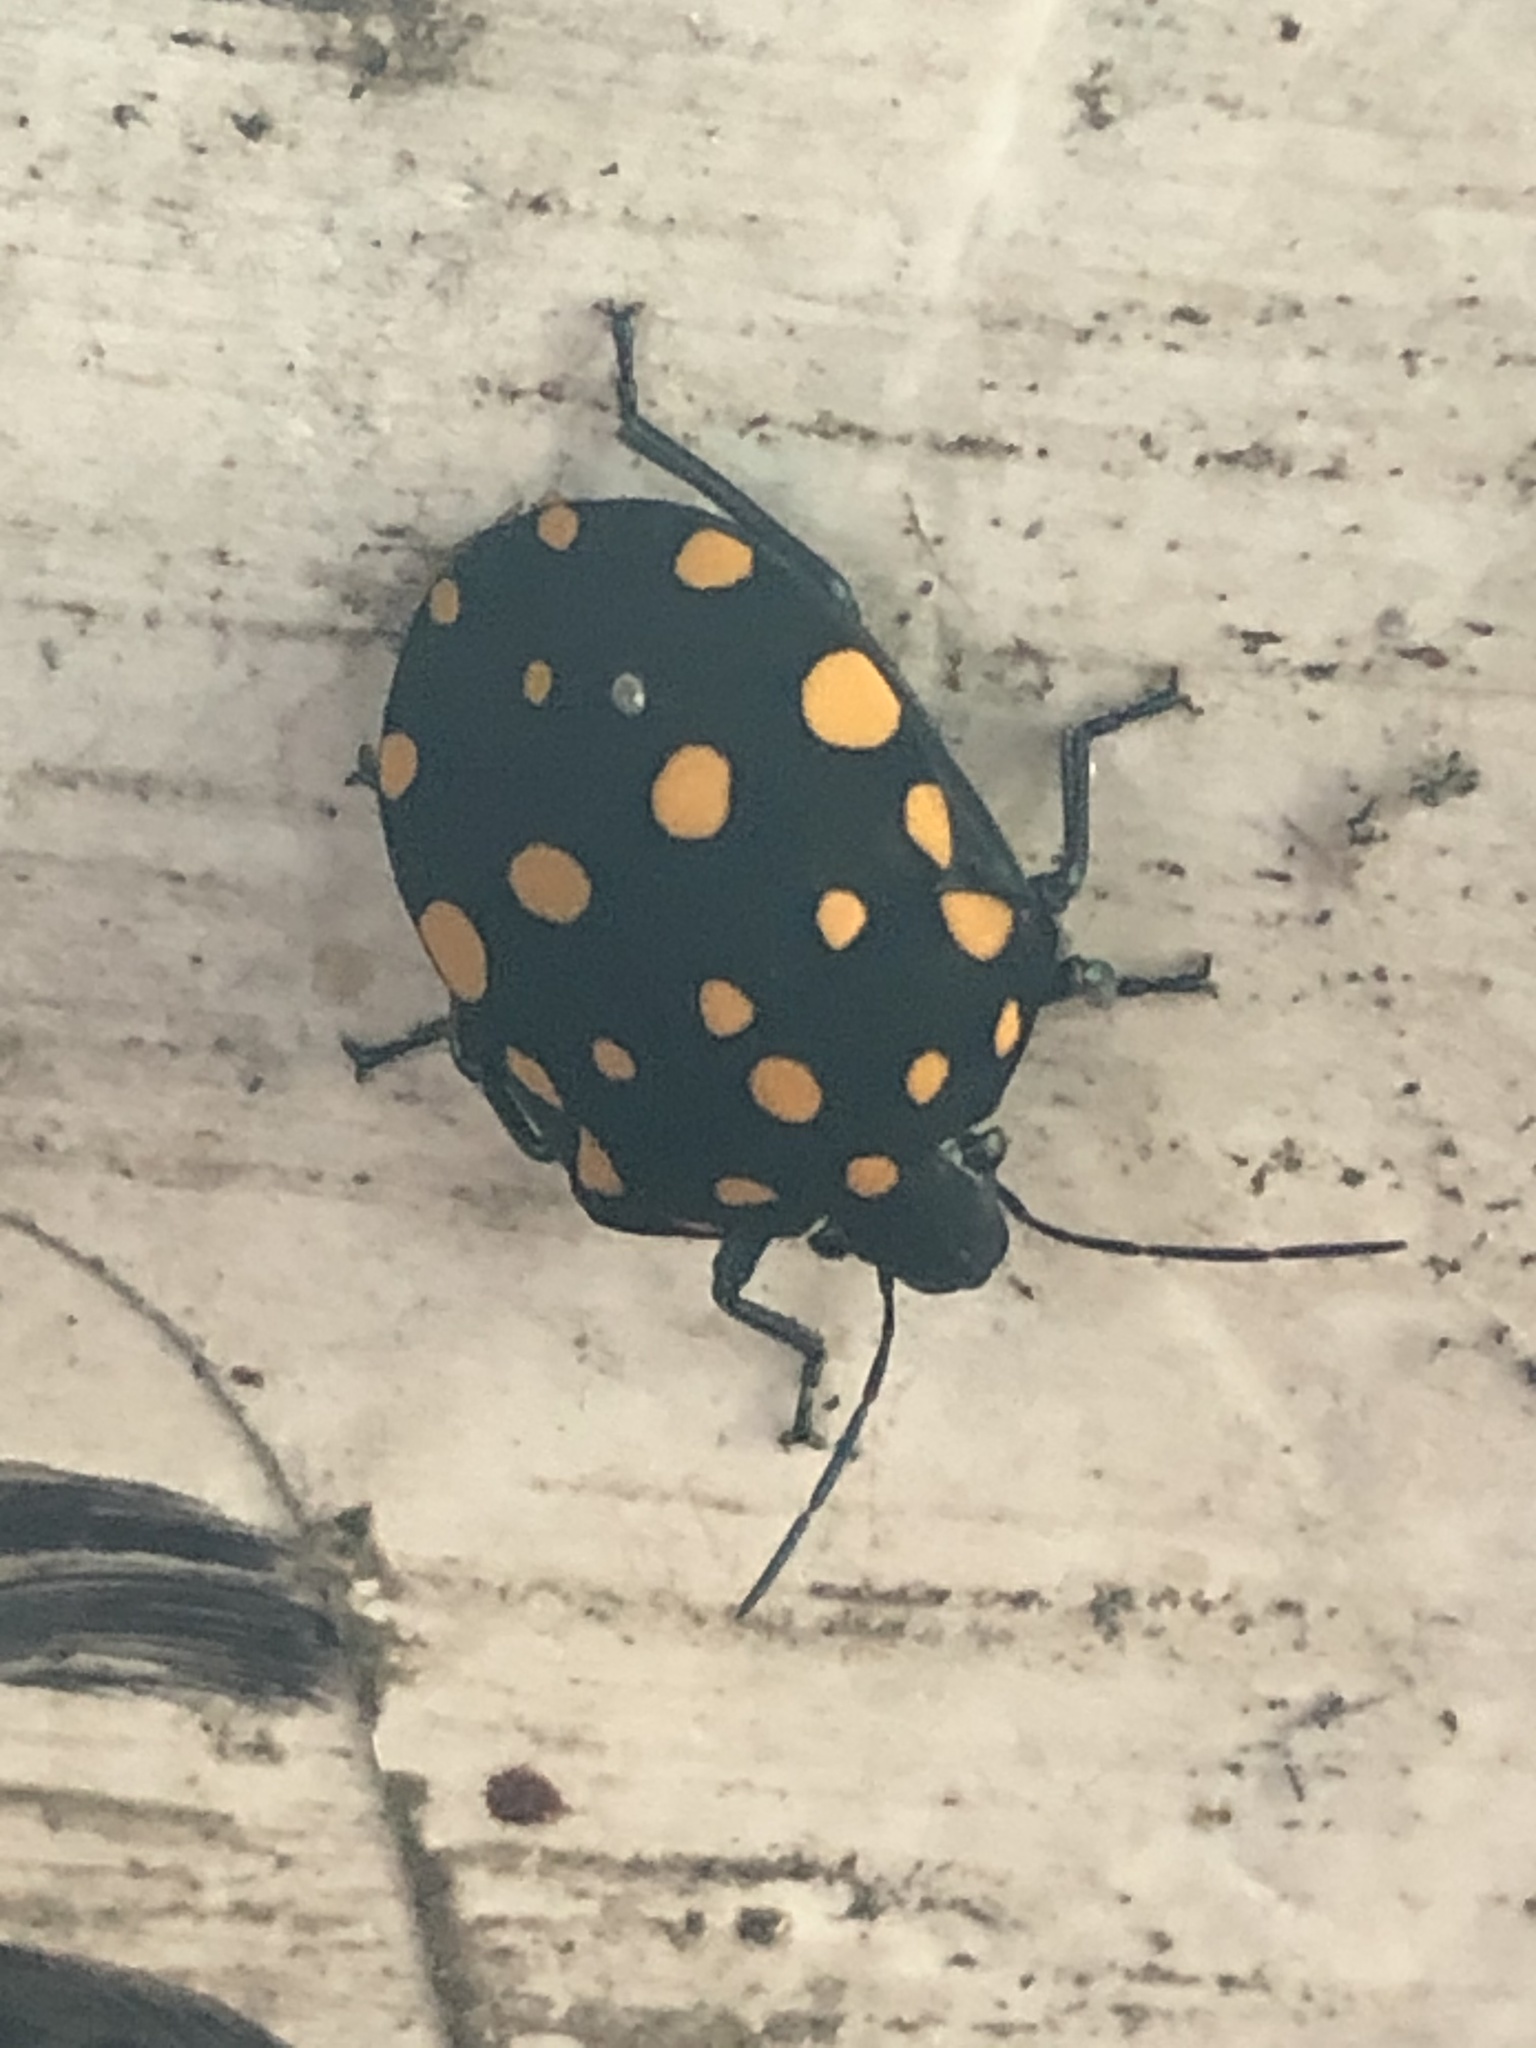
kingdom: Animalia
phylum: Arthropoda
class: Insecta
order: Hemiptera
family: Scutelleridae
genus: Pachycoris
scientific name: Pachycoris torridus
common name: Torrid jewel bug
